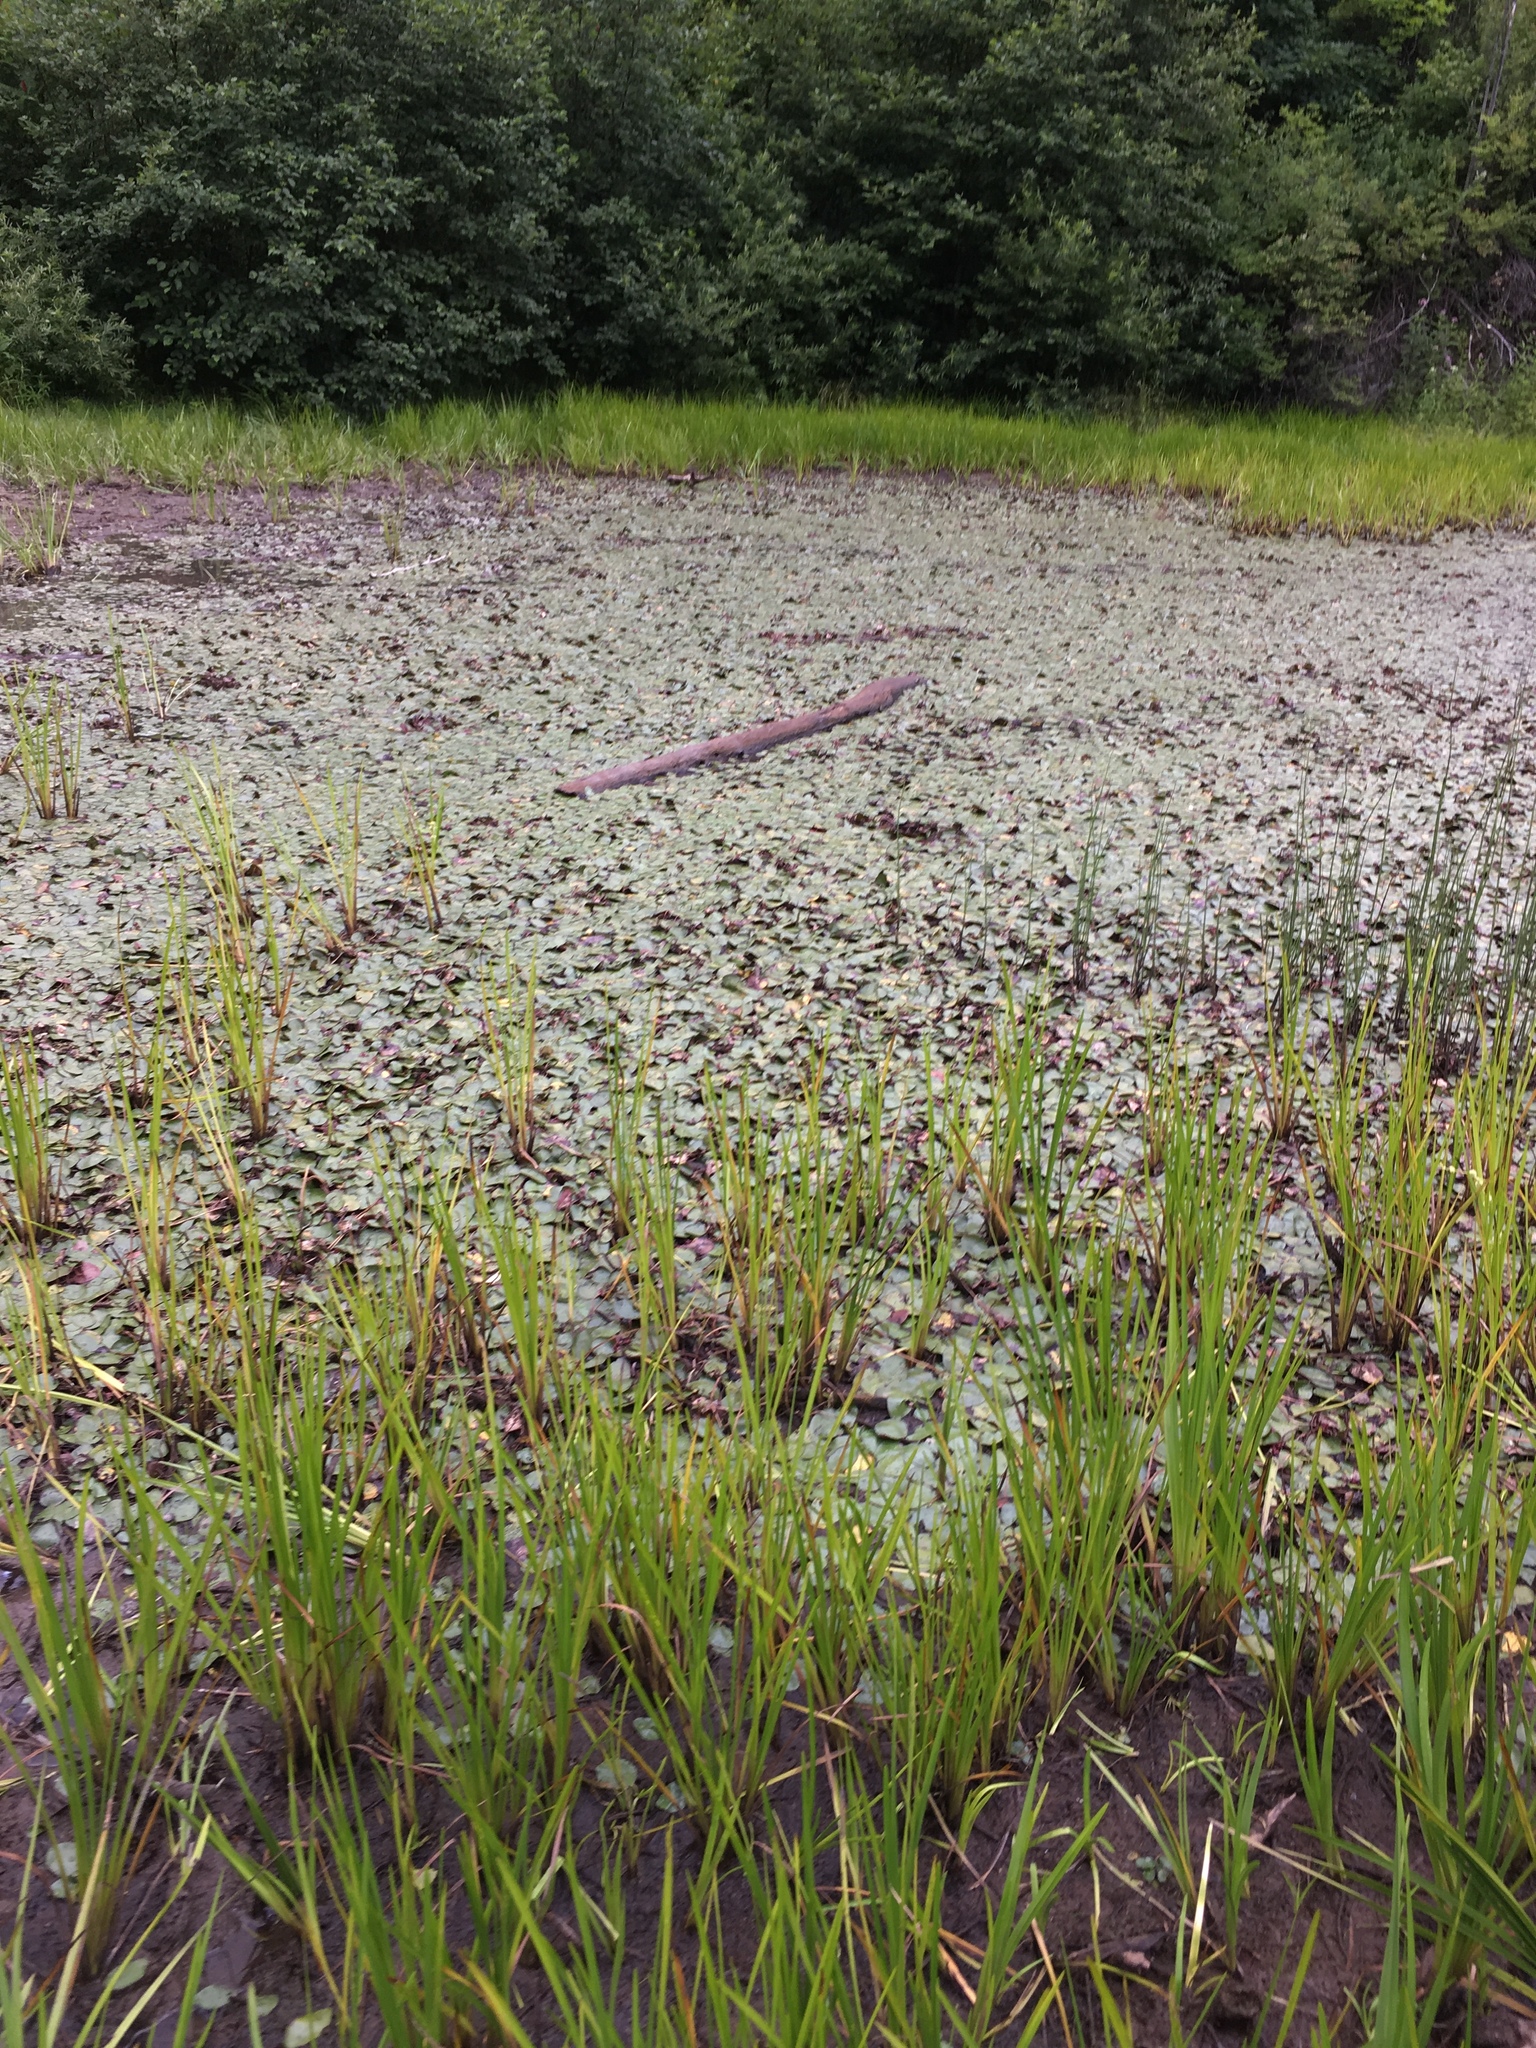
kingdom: Plantae
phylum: Tracheophyta
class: Magnoliopsida
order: Nymphaeales
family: Cabombaceae
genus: Brasenia
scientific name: Brasenia schreberi
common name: Water-shield
